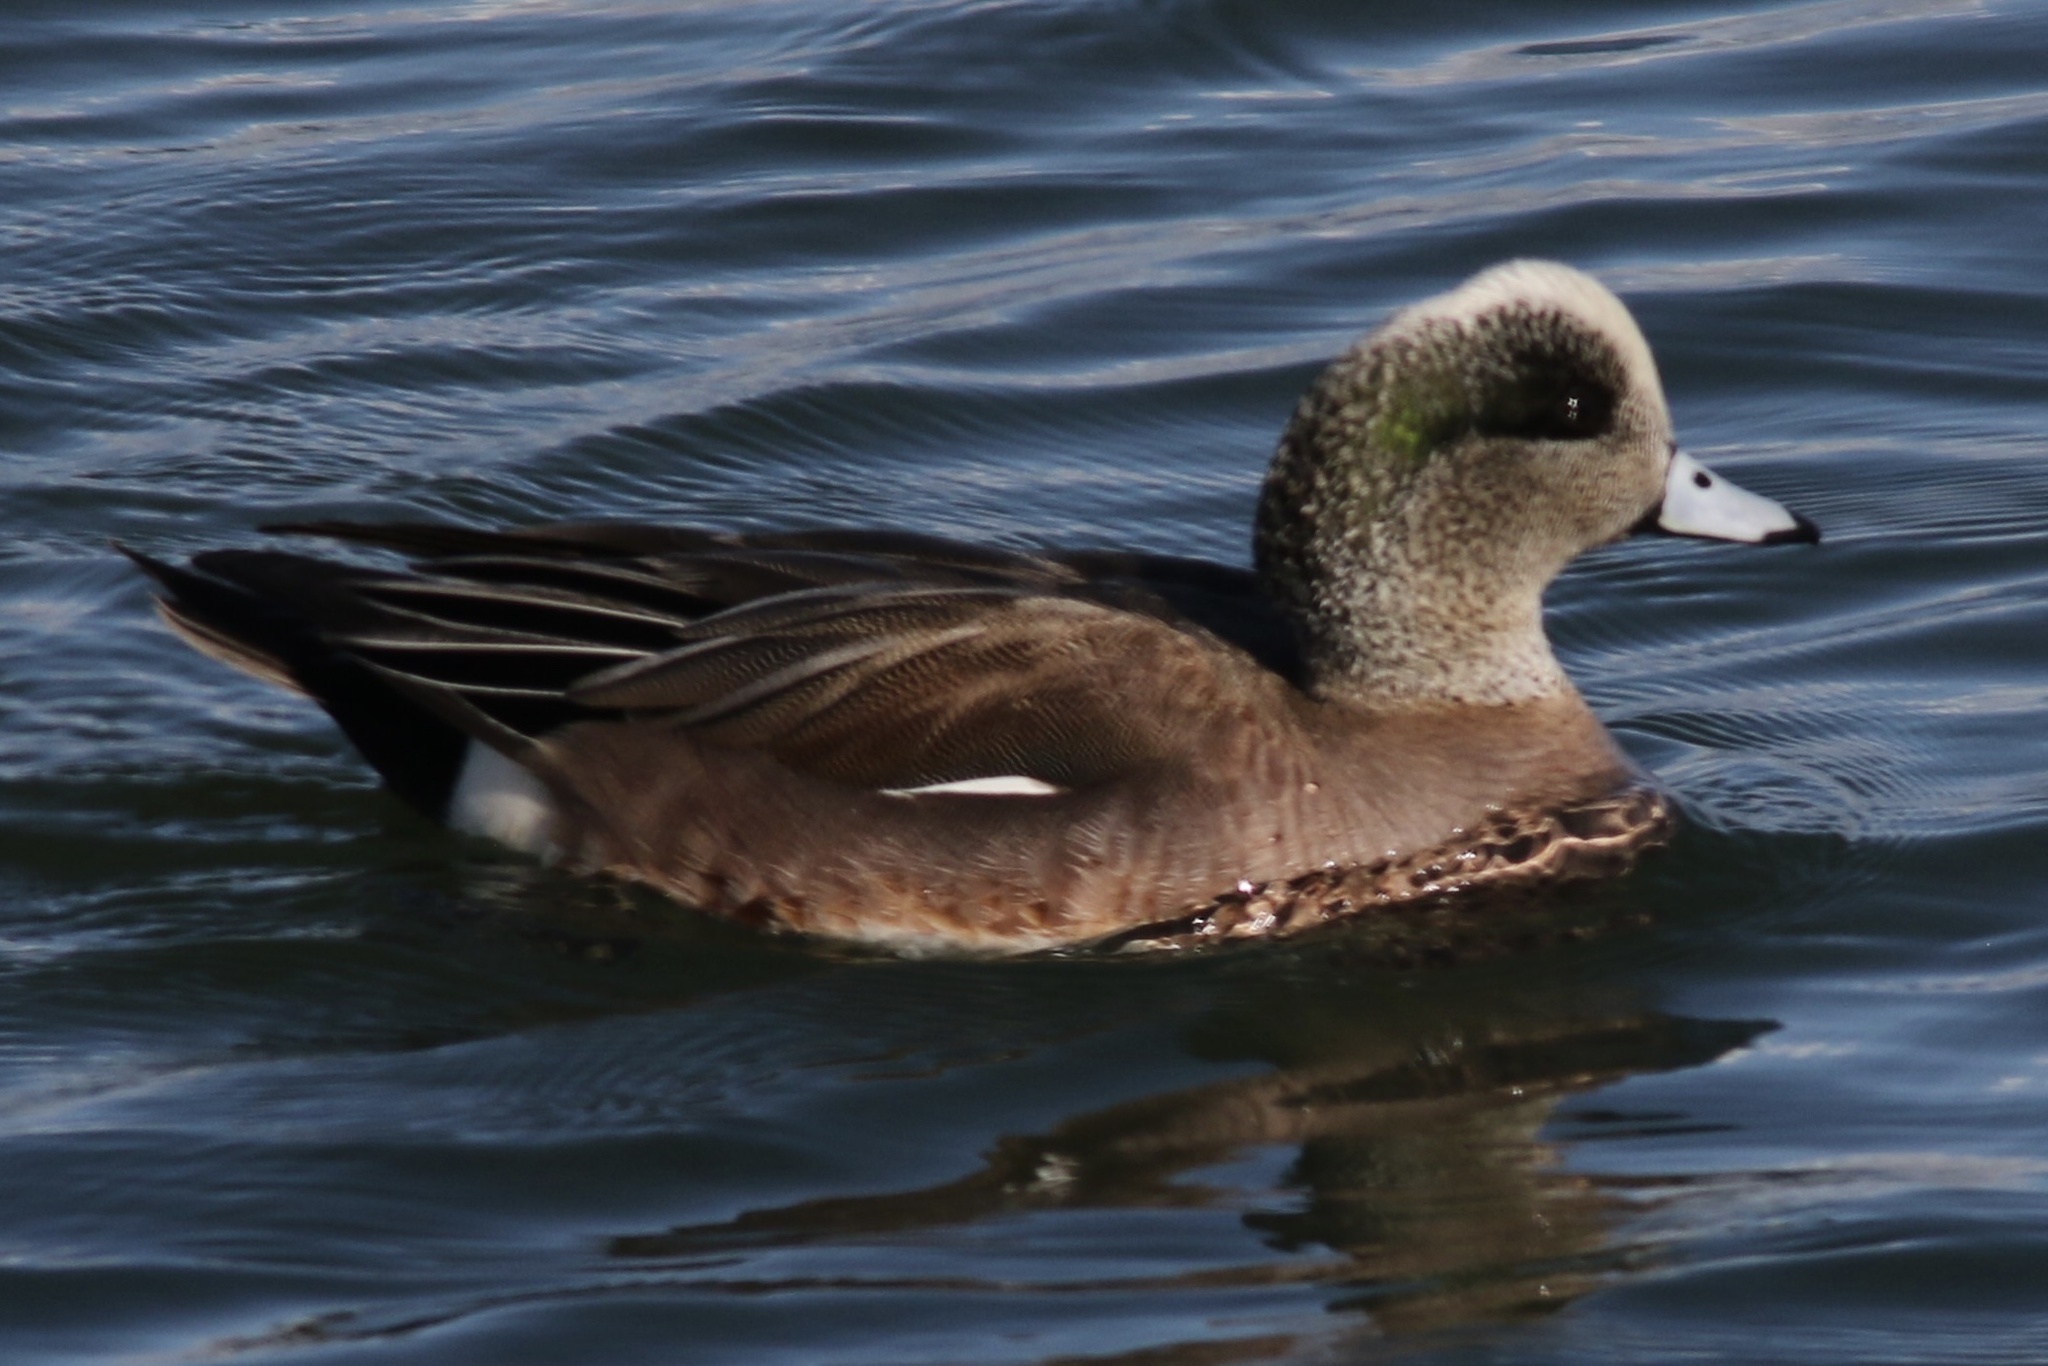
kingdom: Animalia
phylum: Chordata
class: Aves
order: Anseriformes
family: Anatidae
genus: Mareca
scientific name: Mareca americana
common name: American wigeon
